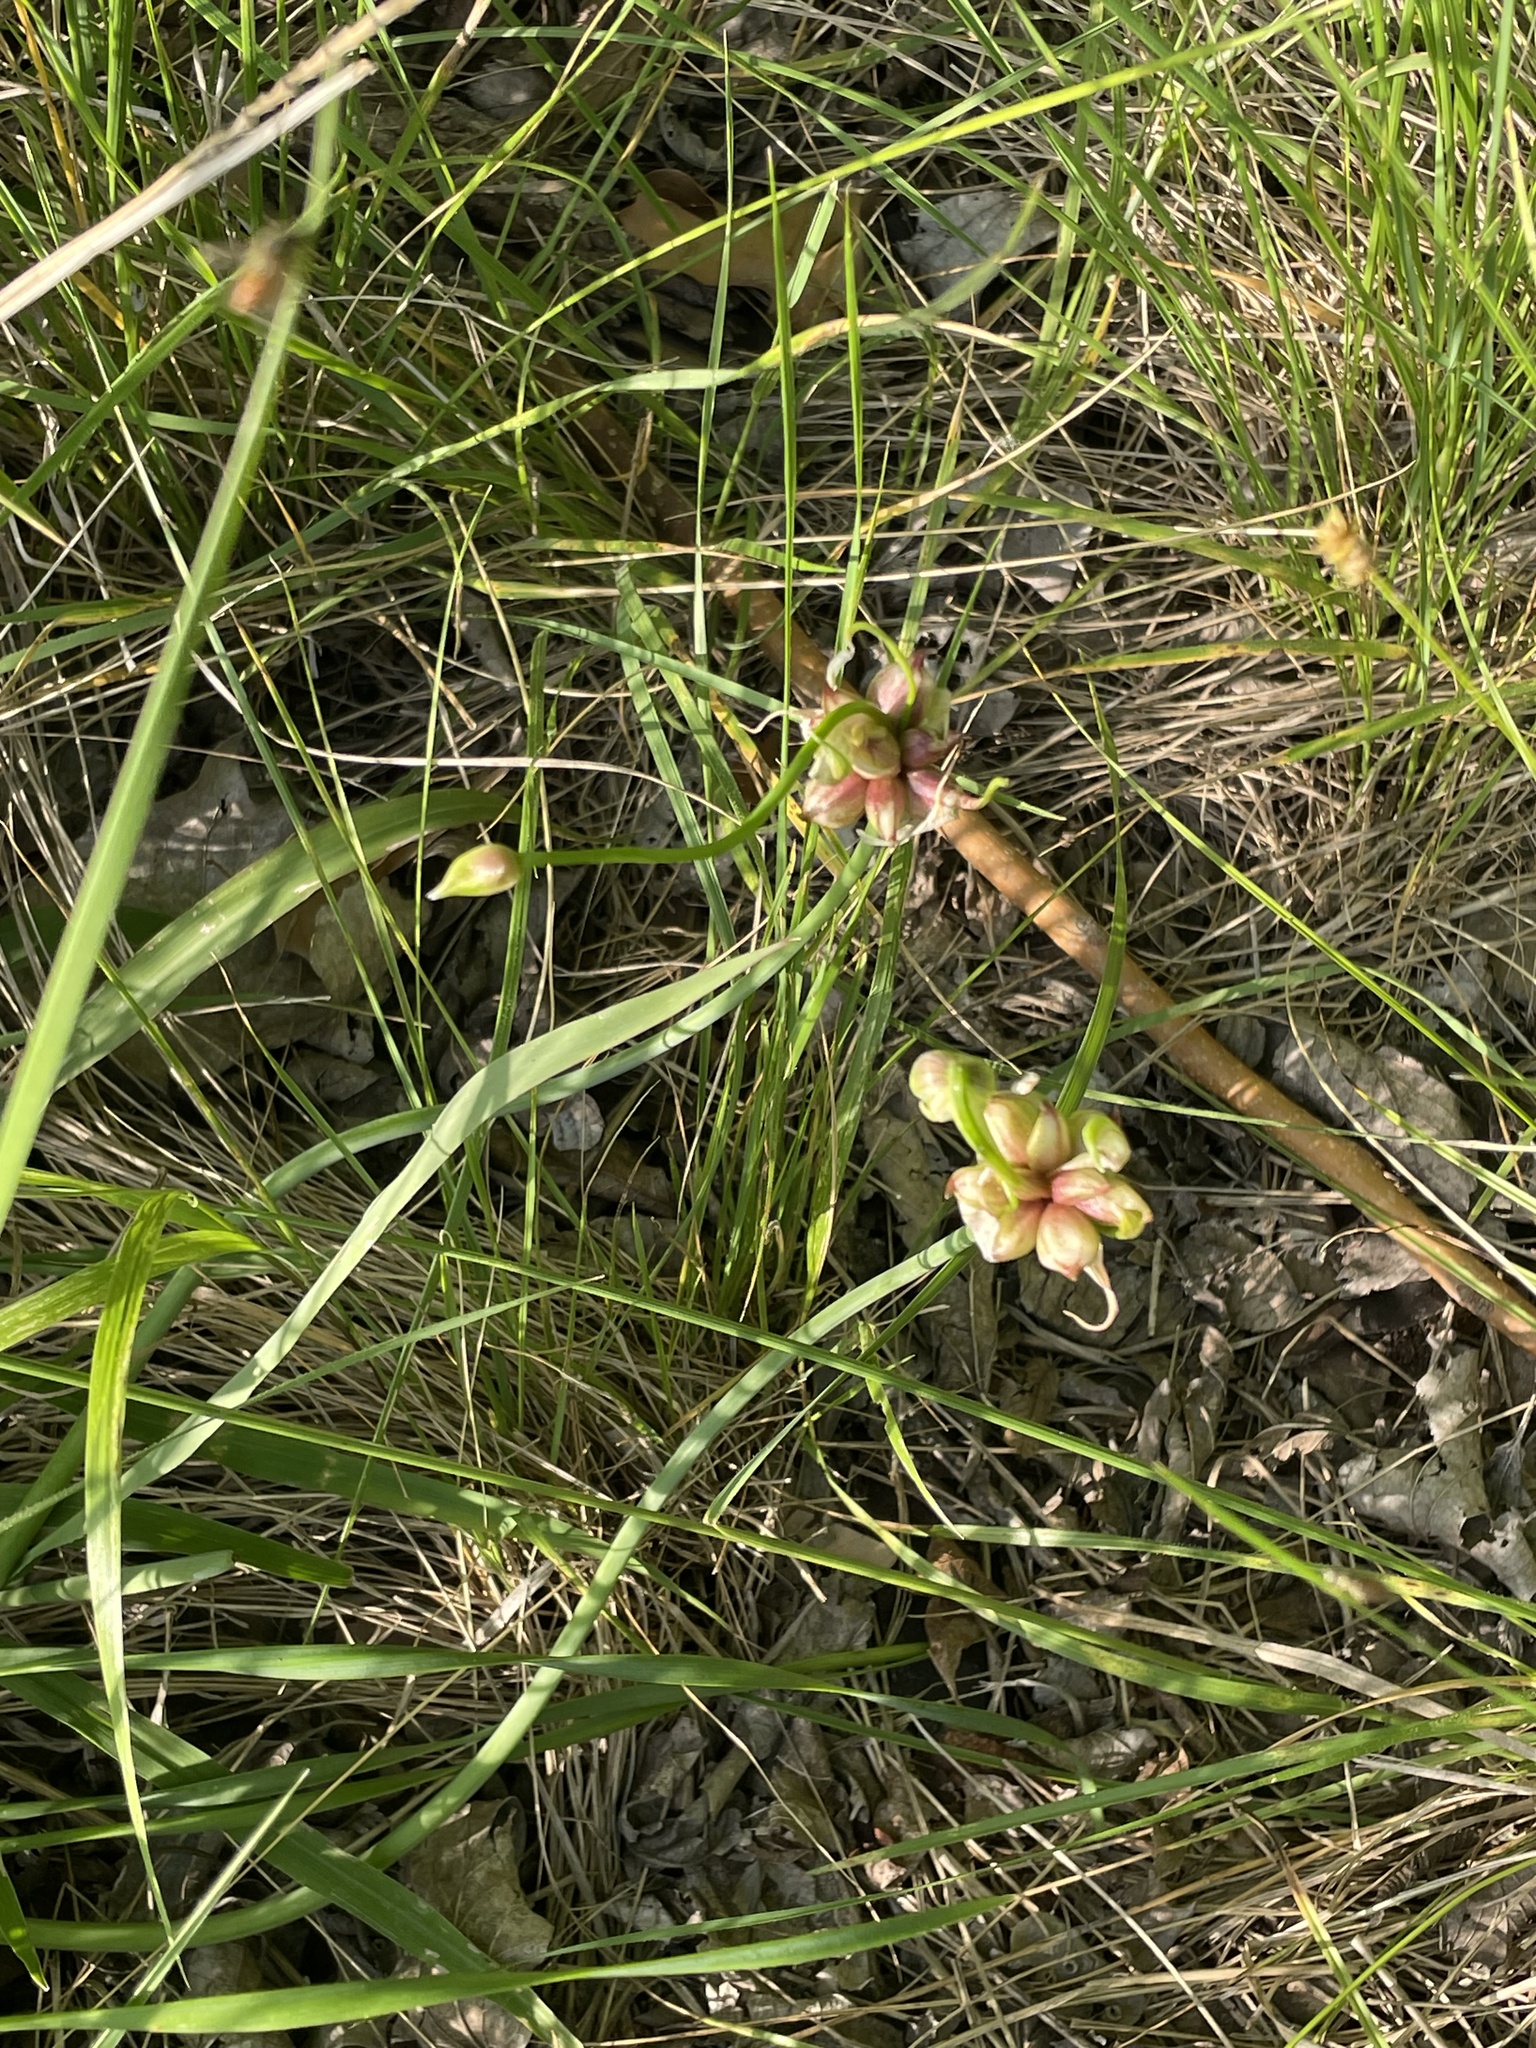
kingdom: Plantae
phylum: Tracheophyta
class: Liliopsida
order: Asparagales
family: Amaryllidaceae
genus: Allium
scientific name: Allium canadense
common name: Meadow garlic
